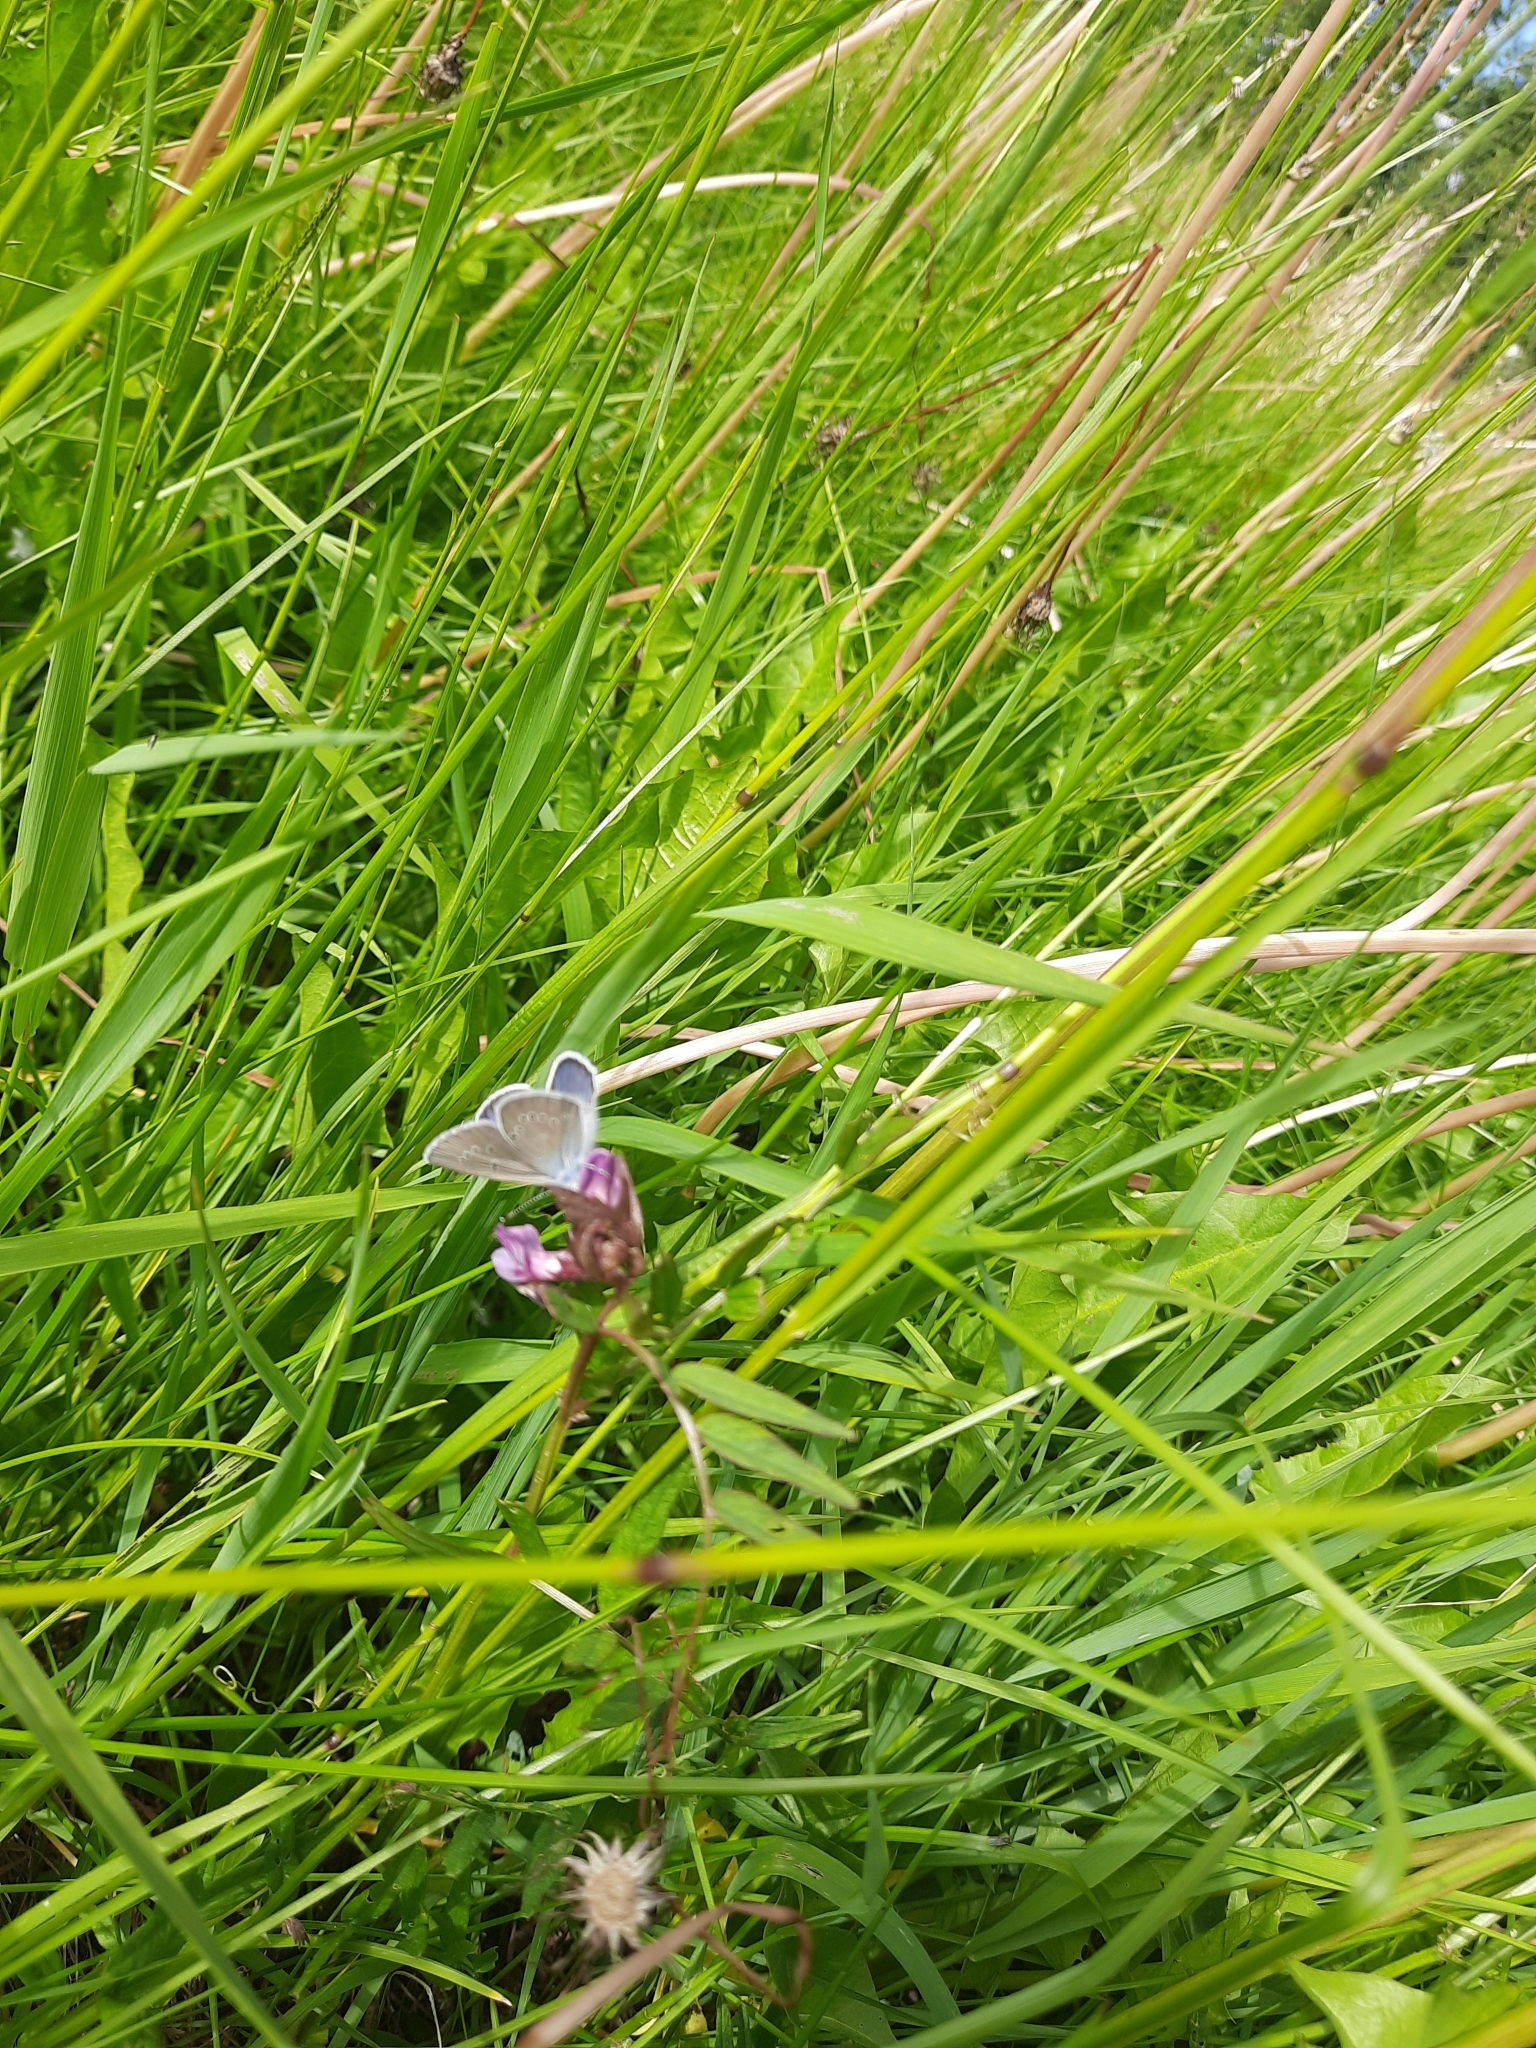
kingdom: Animalia
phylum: Arthropoda
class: Insecta
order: Lepidoptera
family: Lycaenidae
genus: Cyaniris
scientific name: Cyaniris semiargus
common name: Mazarine blue
